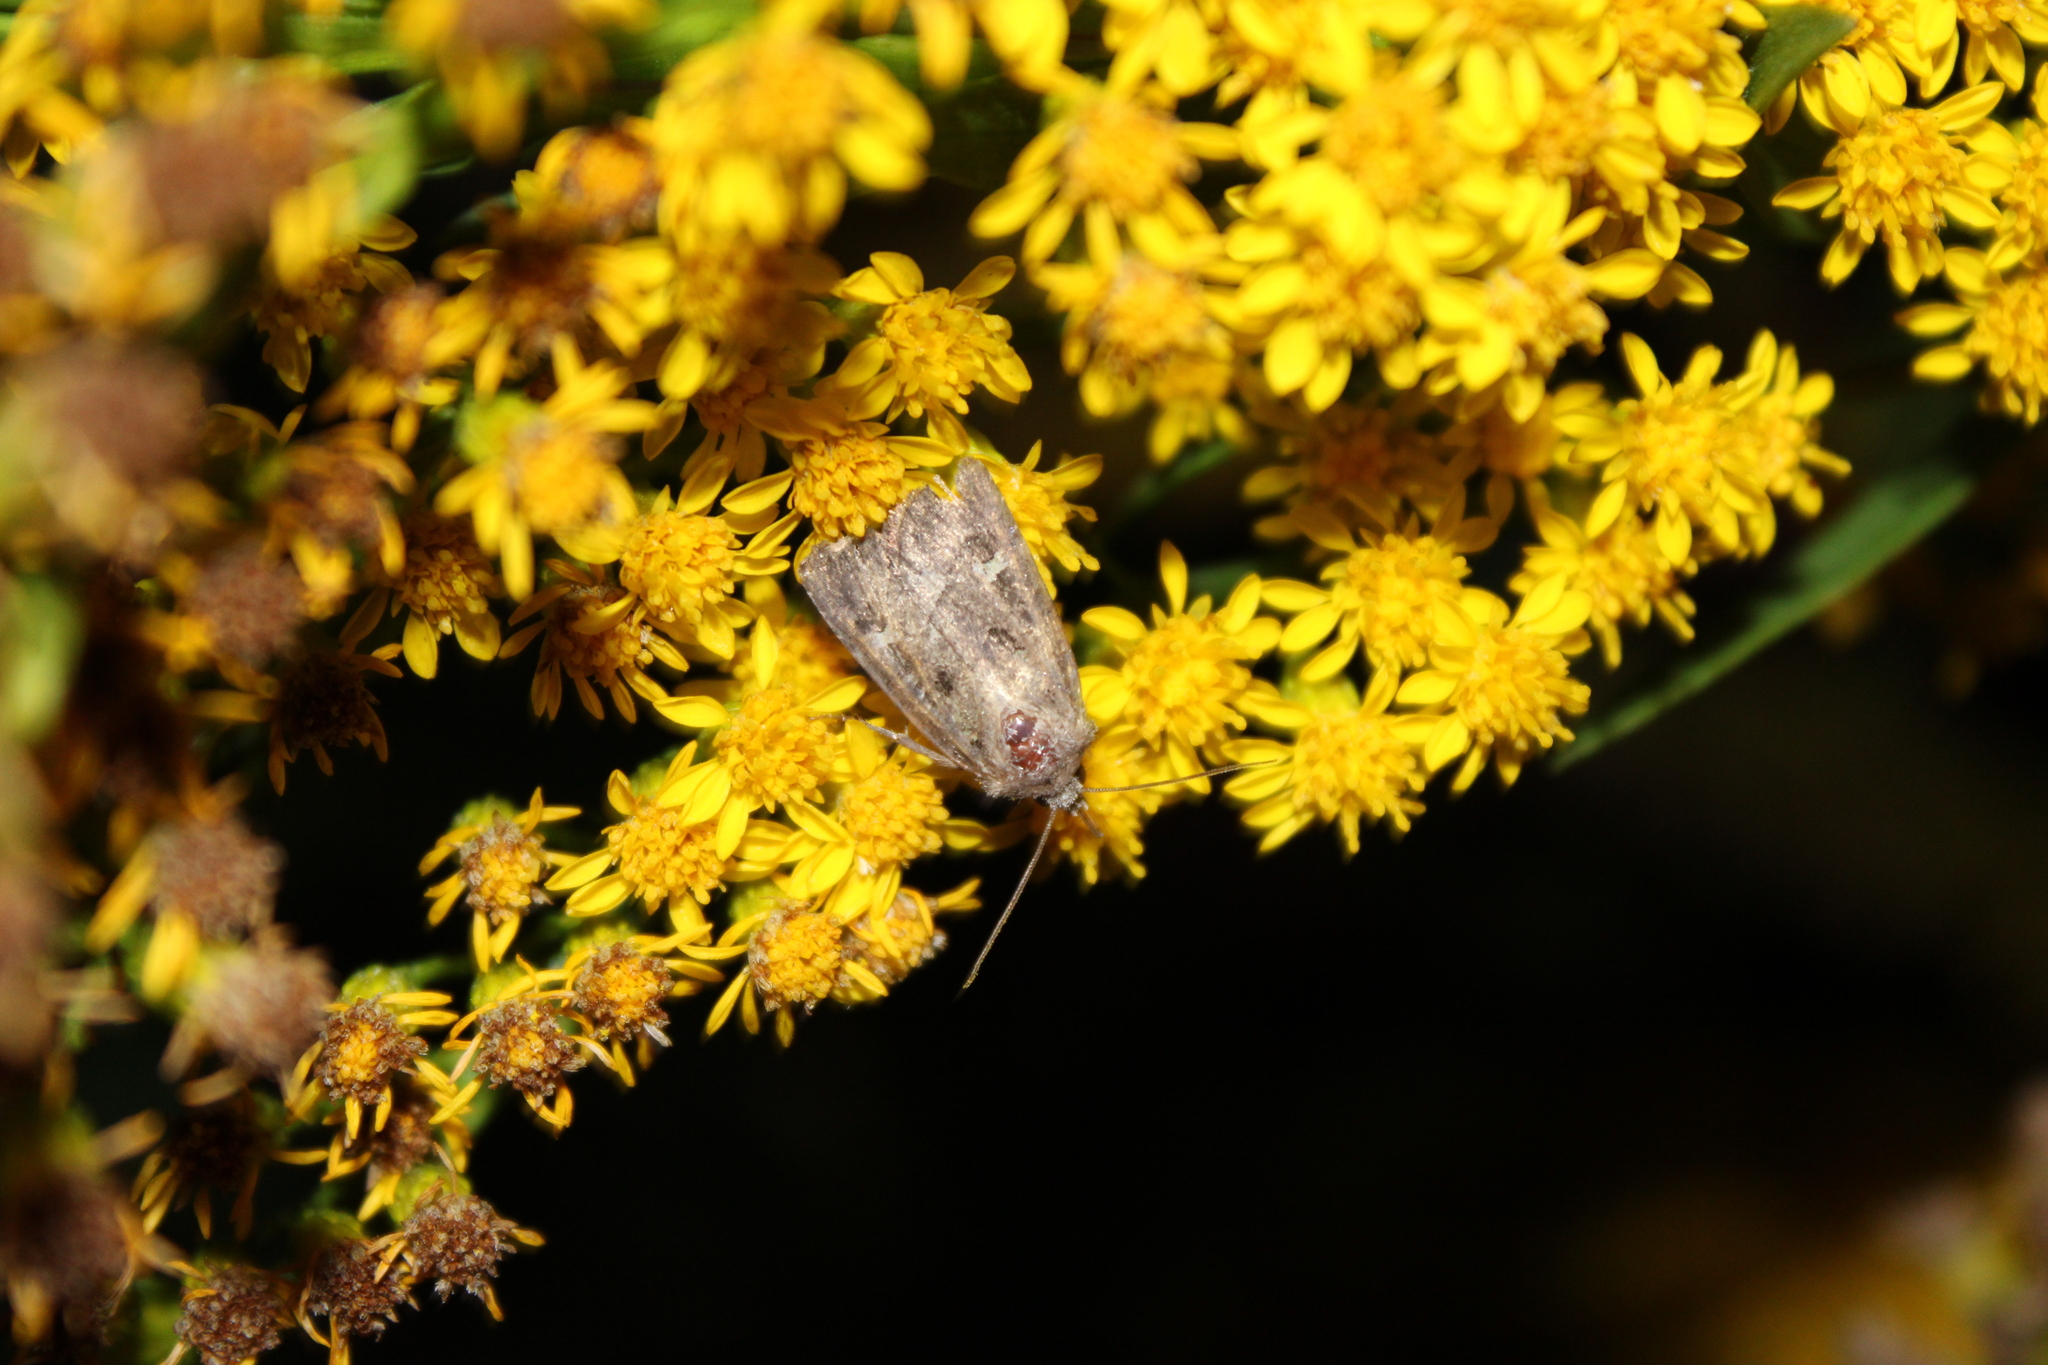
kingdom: Animalia
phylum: Arthropoda
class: Insecta
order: Lepidoptera
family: Noctuidae
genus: Lacinipolia
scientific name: Lacinipolia renigera
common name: Kidney-spotted minor
